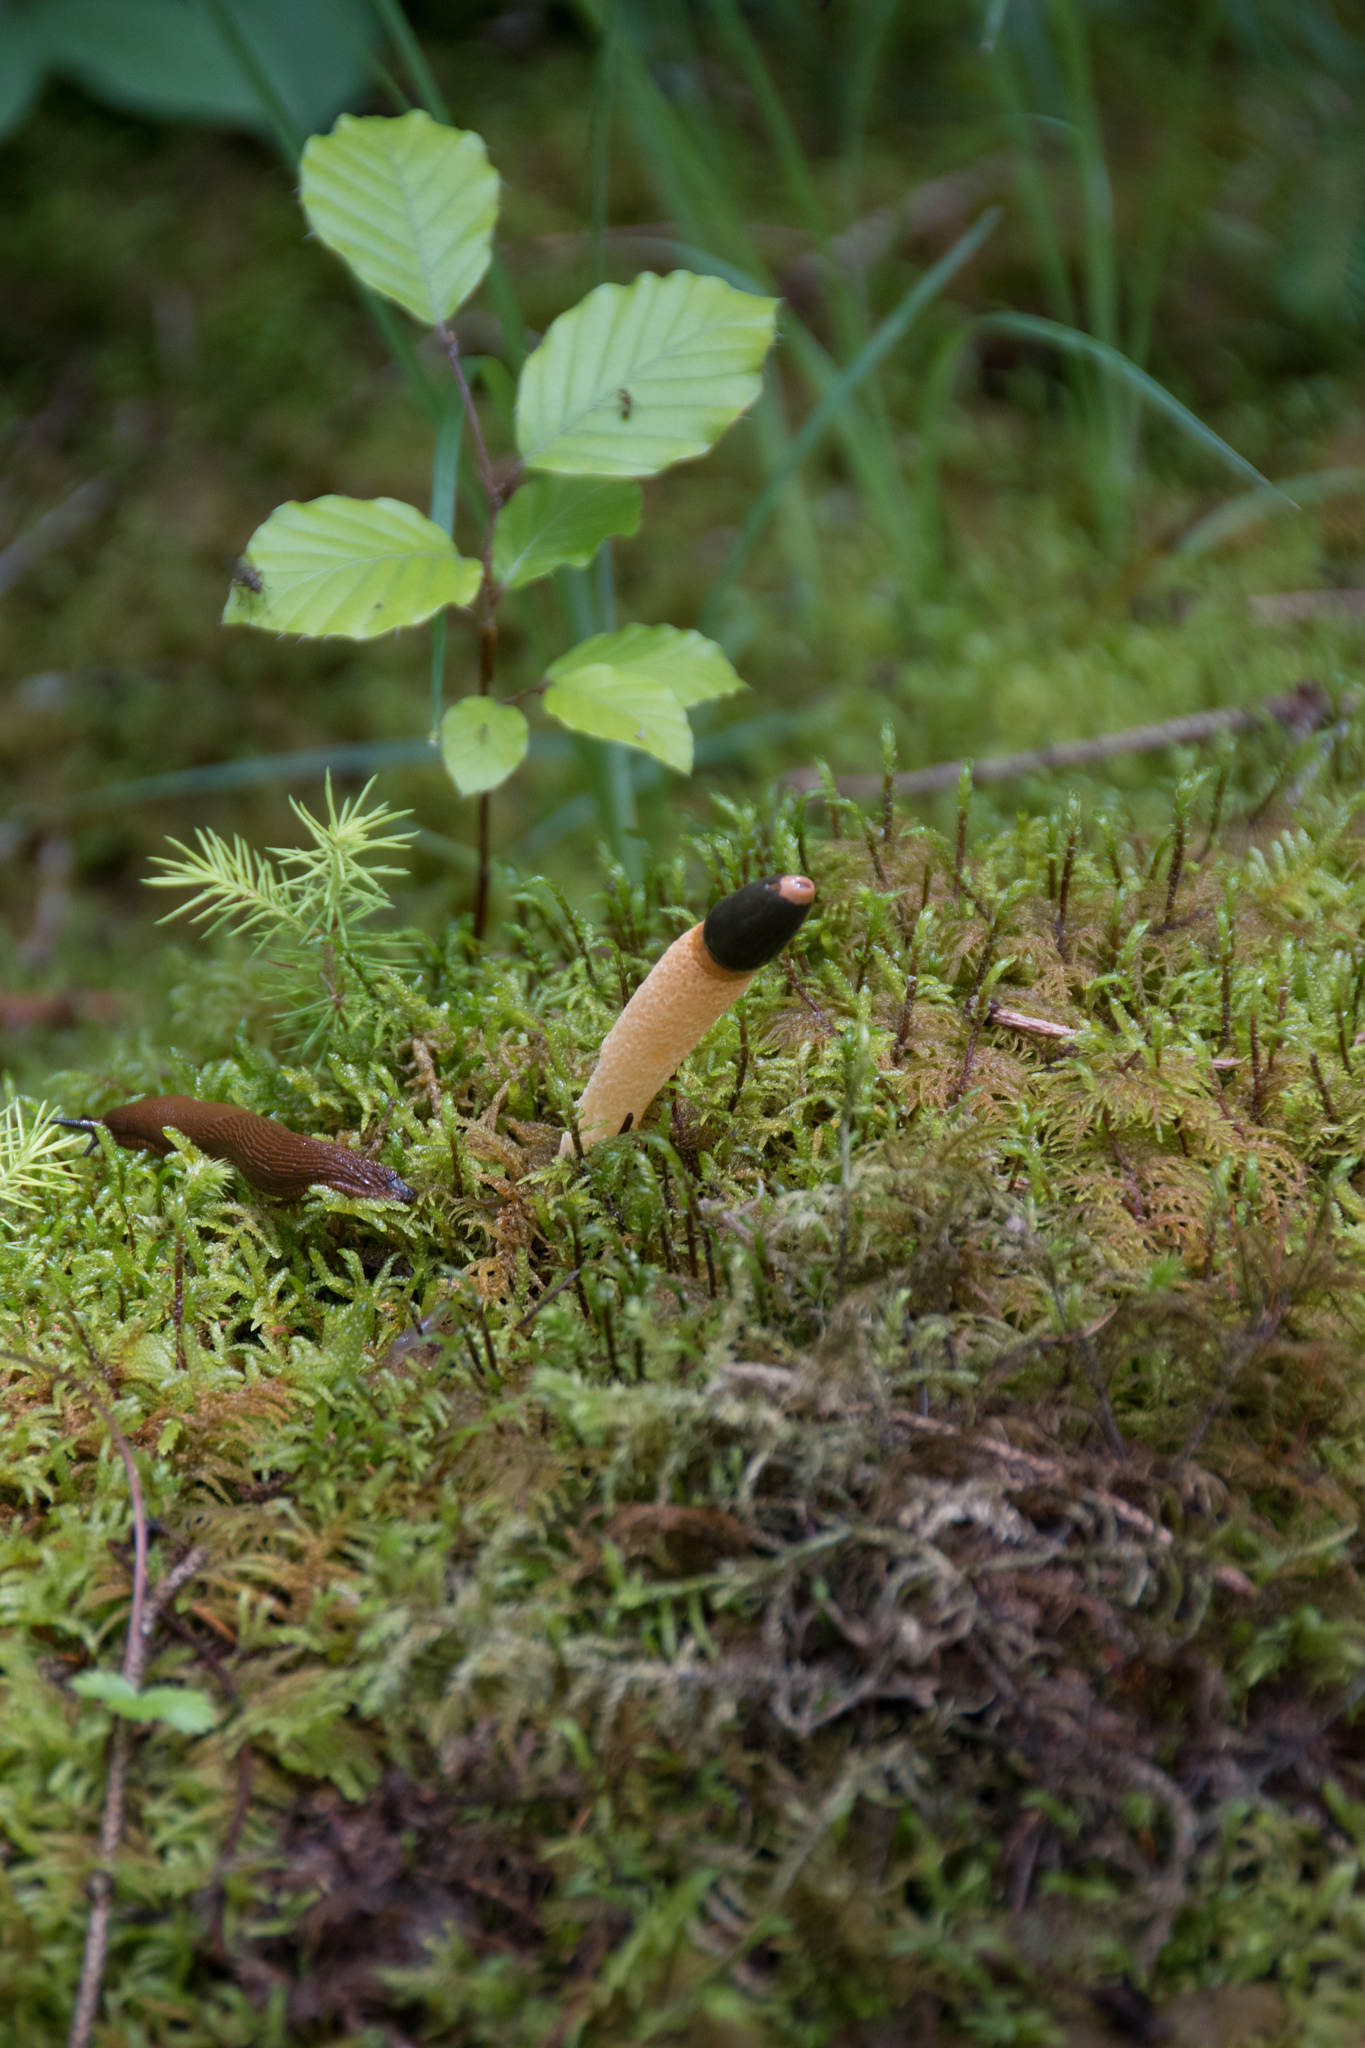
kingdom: Fungi
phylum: Basidiomycota
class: Agaricomycetes
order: Phallales
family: Phallaceae
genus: Mutinus
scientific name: Mutinus caninus
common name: Dog stinkhorn
